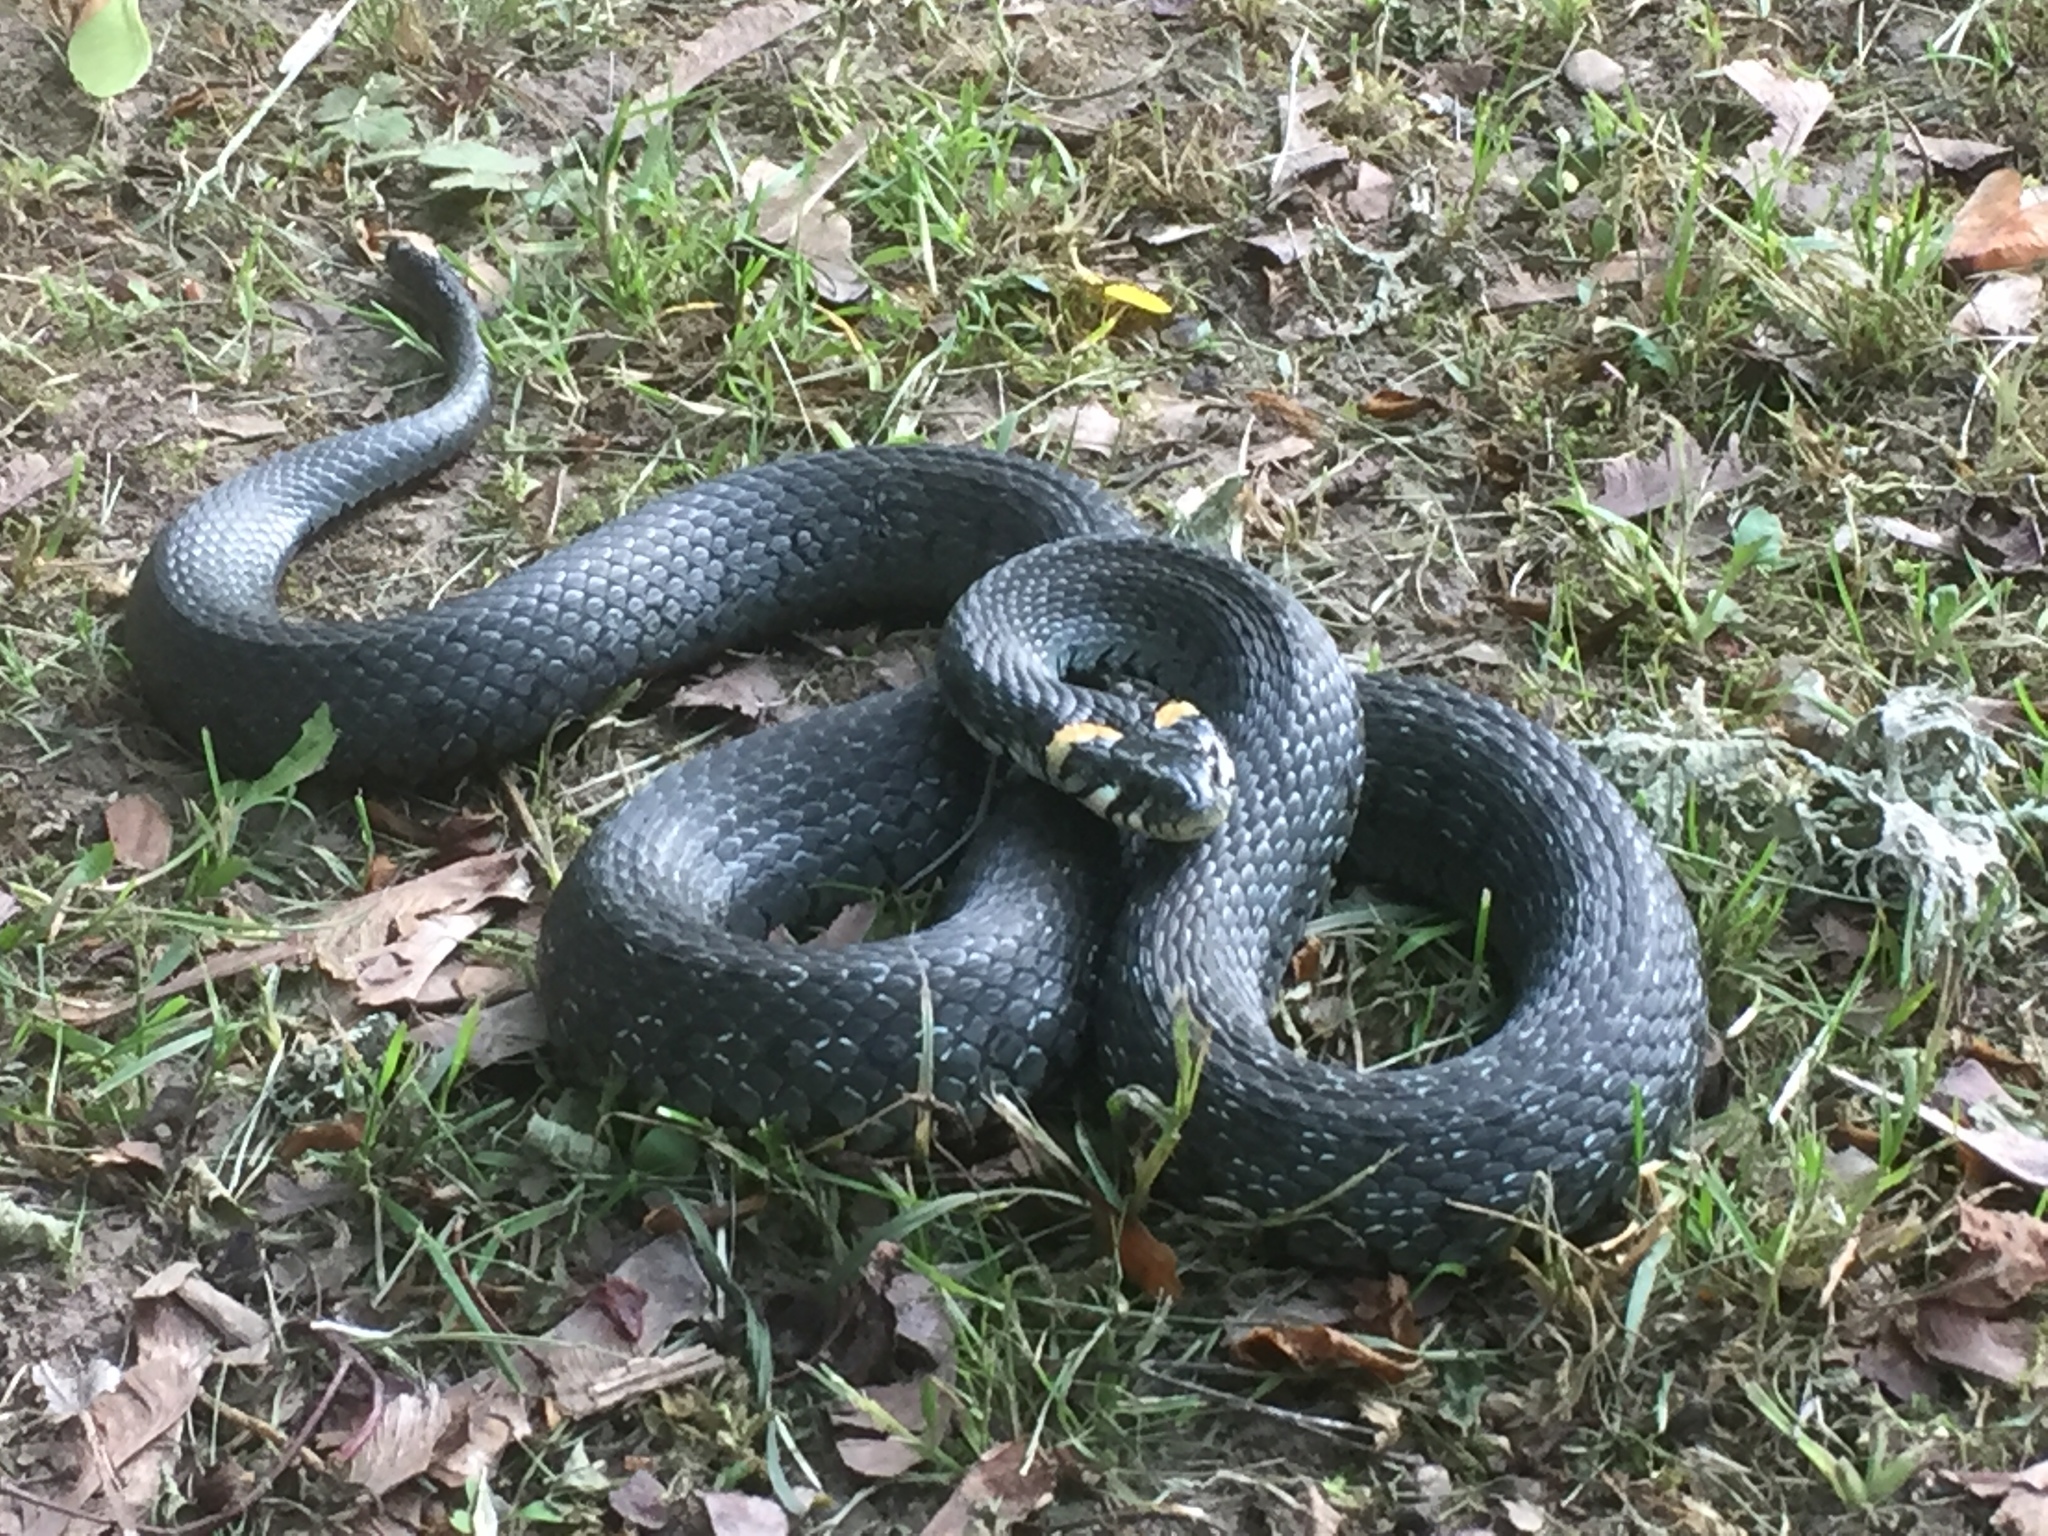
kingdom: Animalia
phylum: Chordata
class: Squamata
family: Colubridae
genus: Natrix
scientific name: Natrix natrix
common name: Grass snake
